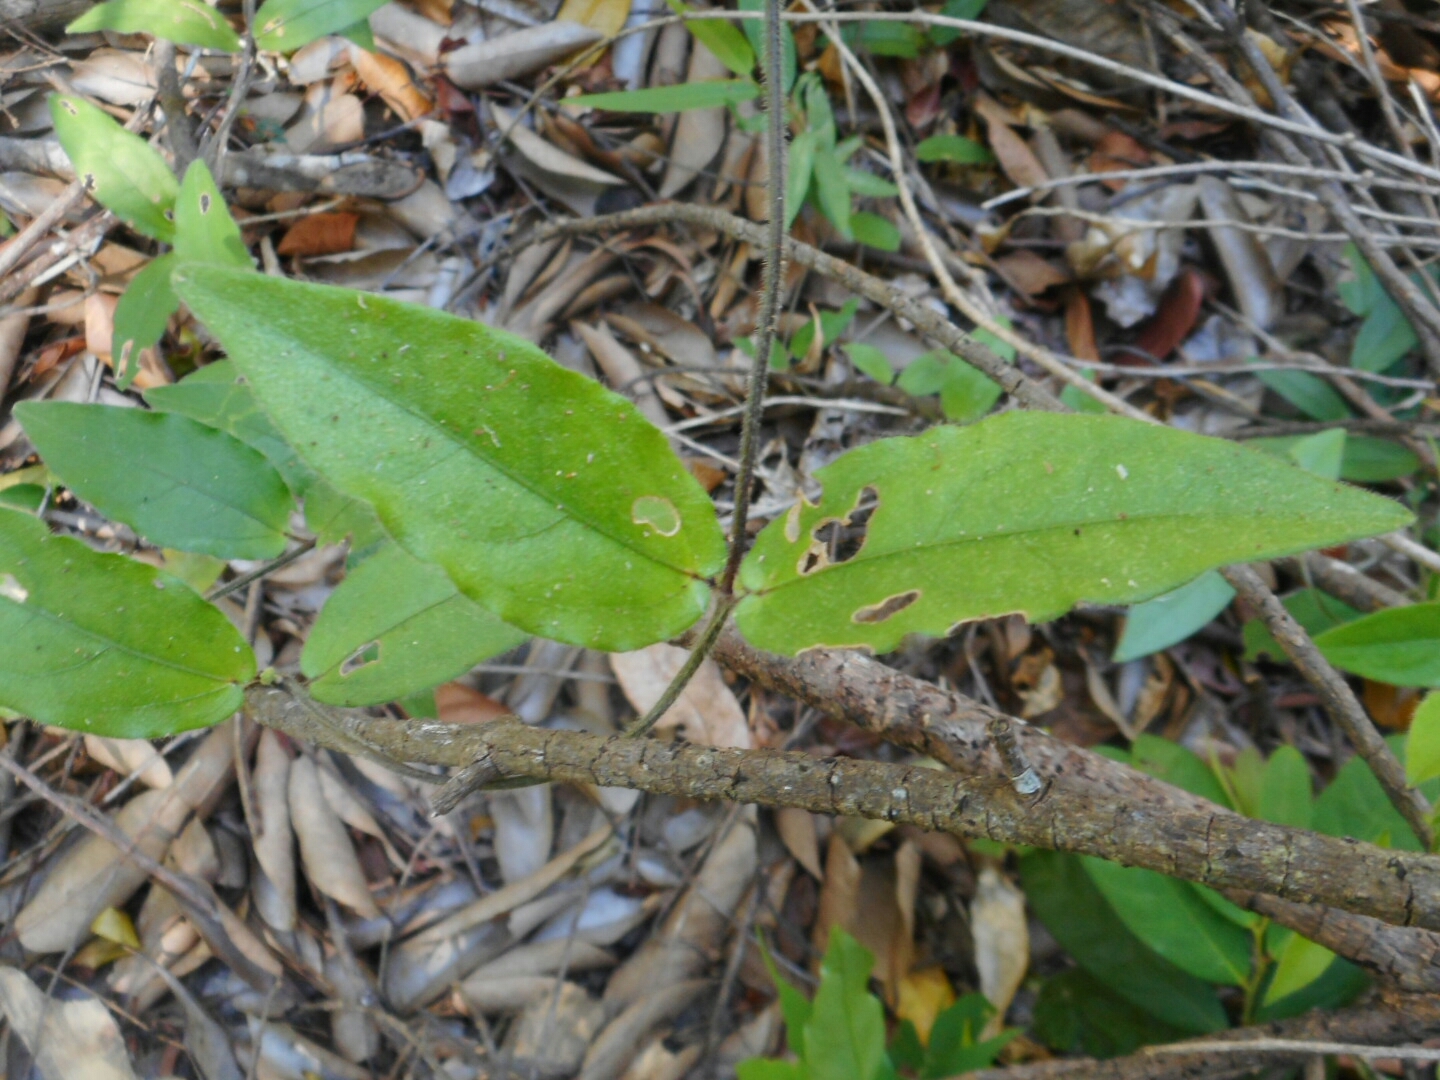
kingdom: Plantae
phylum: Tracheophyta
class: Magnoliopsida
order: Lamiales
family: Acanthaceae
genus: Thunbergia
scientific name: Thunbergia fragrans
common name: Whitelady
